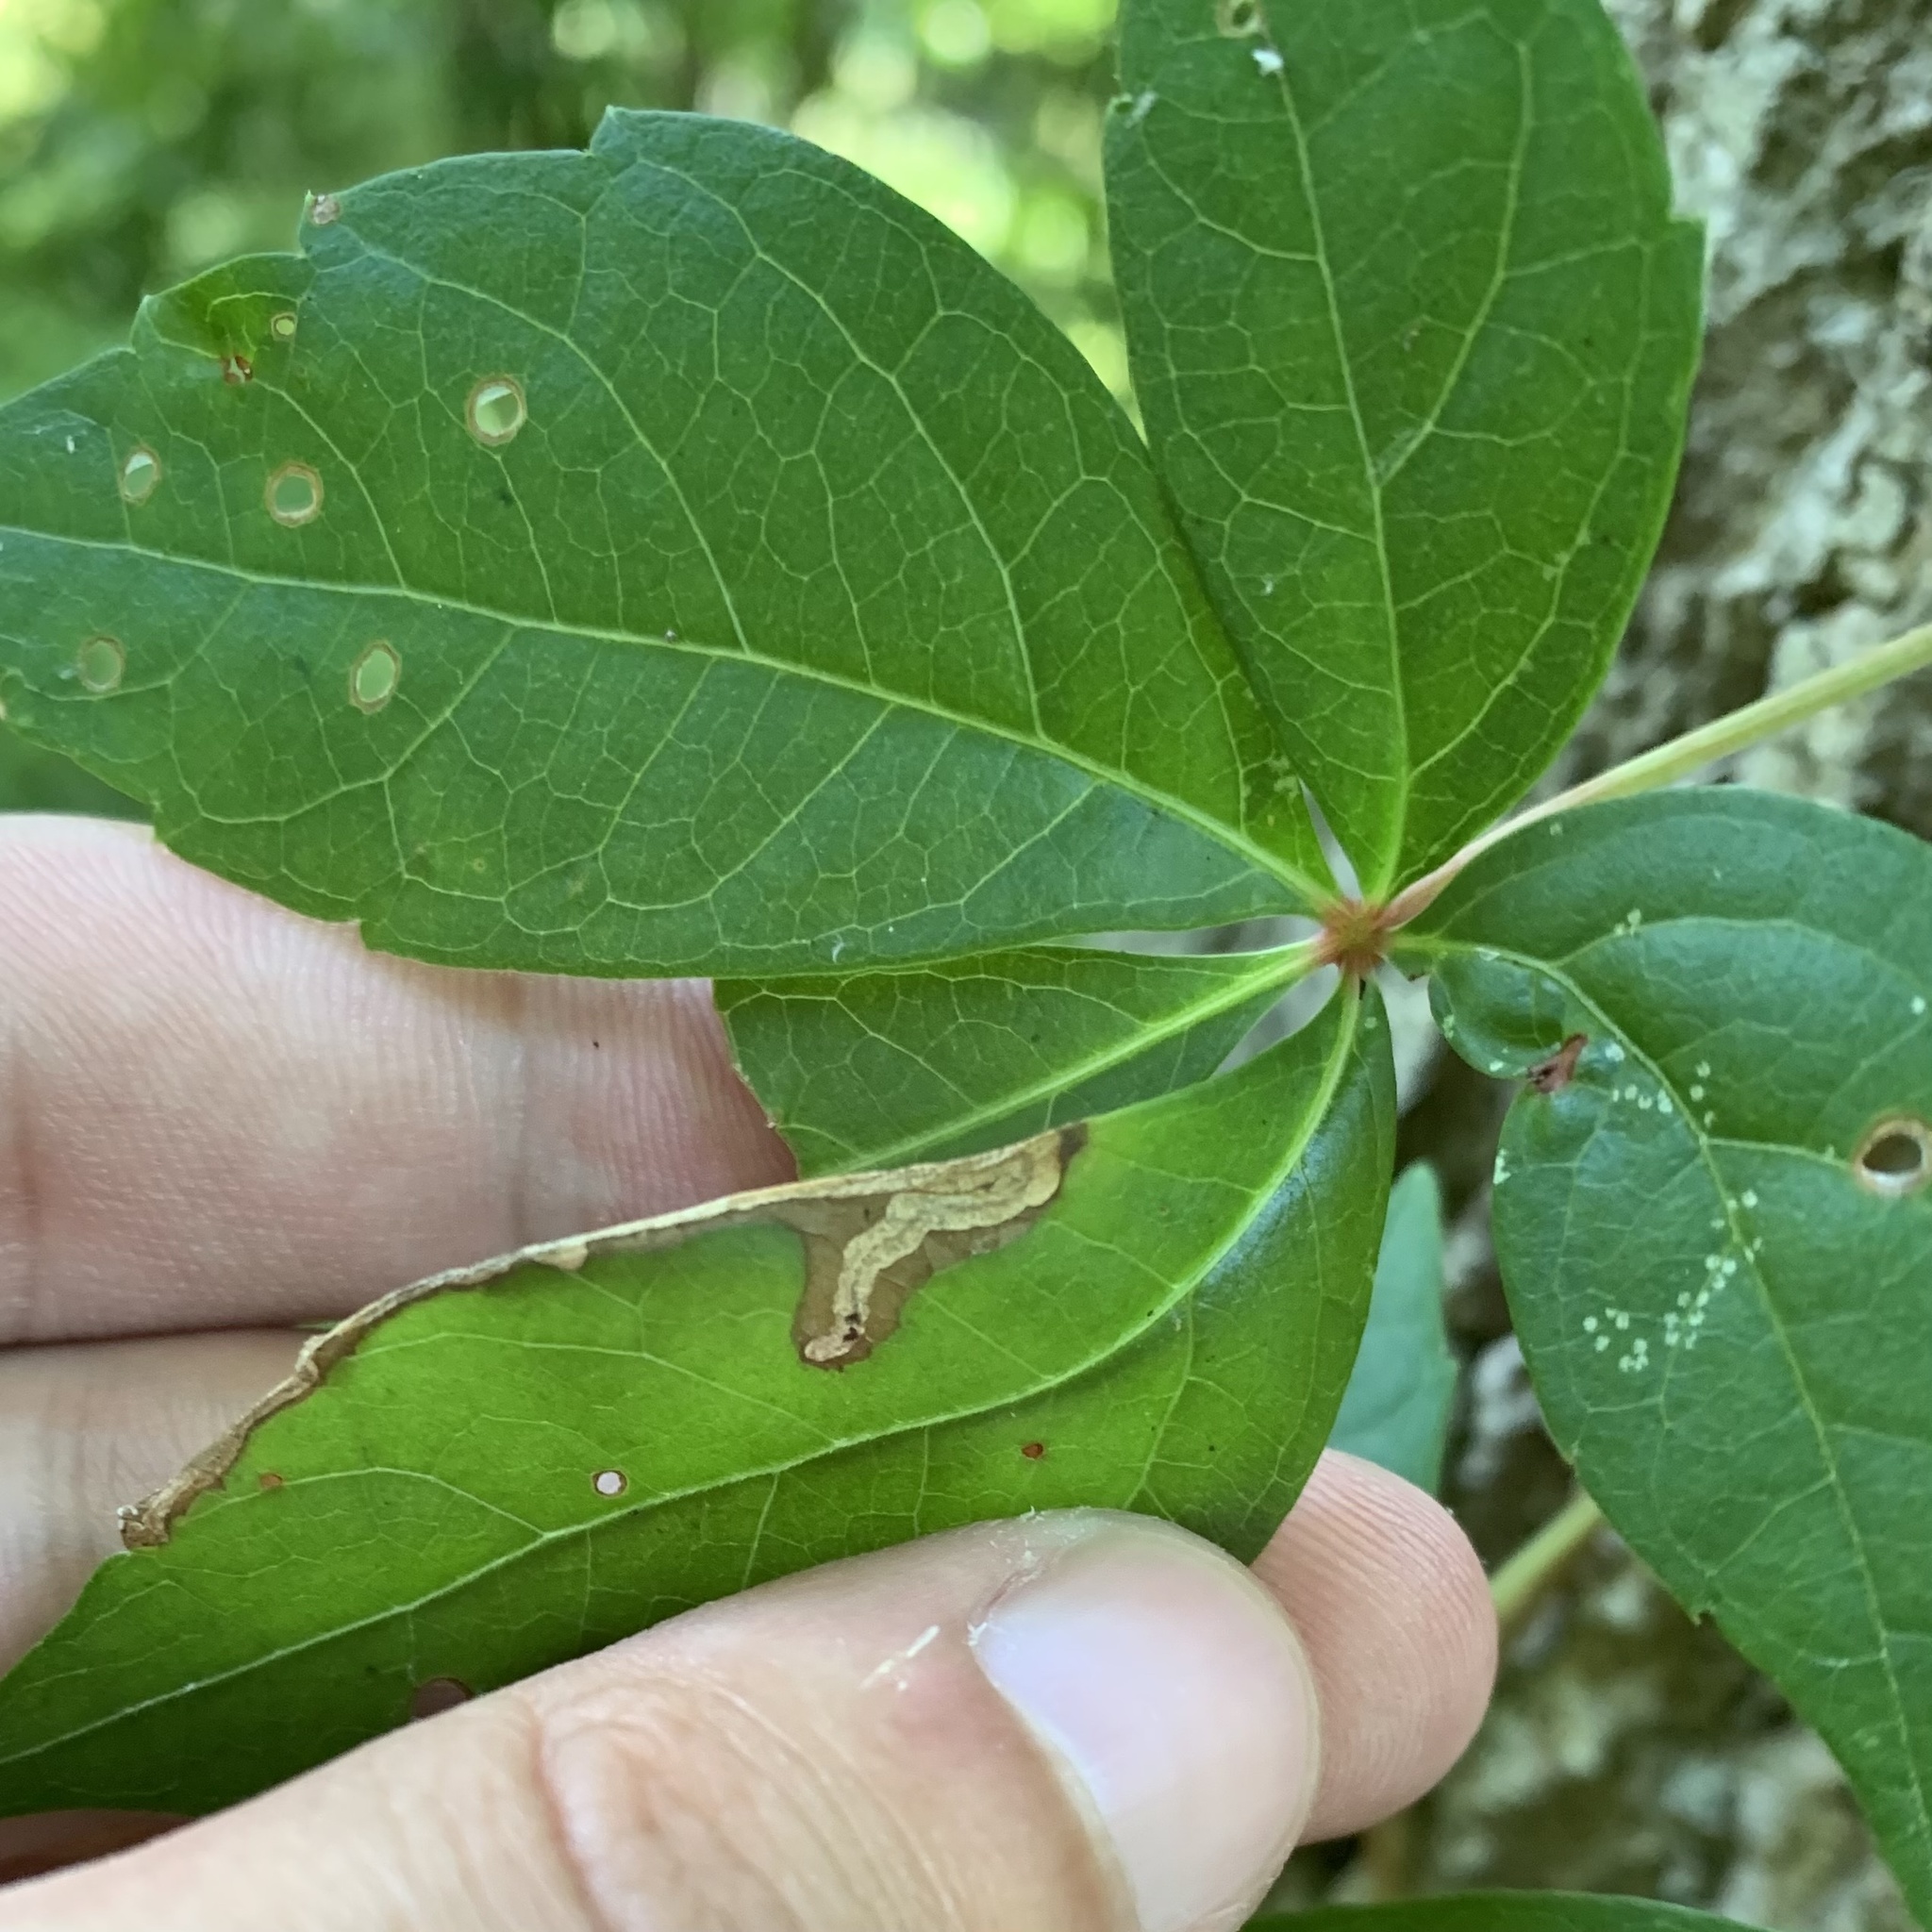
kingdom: Animalia
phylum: Arthropoda
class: Insecta
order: Coleoptera
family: Curculionidae
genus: Orchestomerus
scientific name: Orchestomerus eisemani
